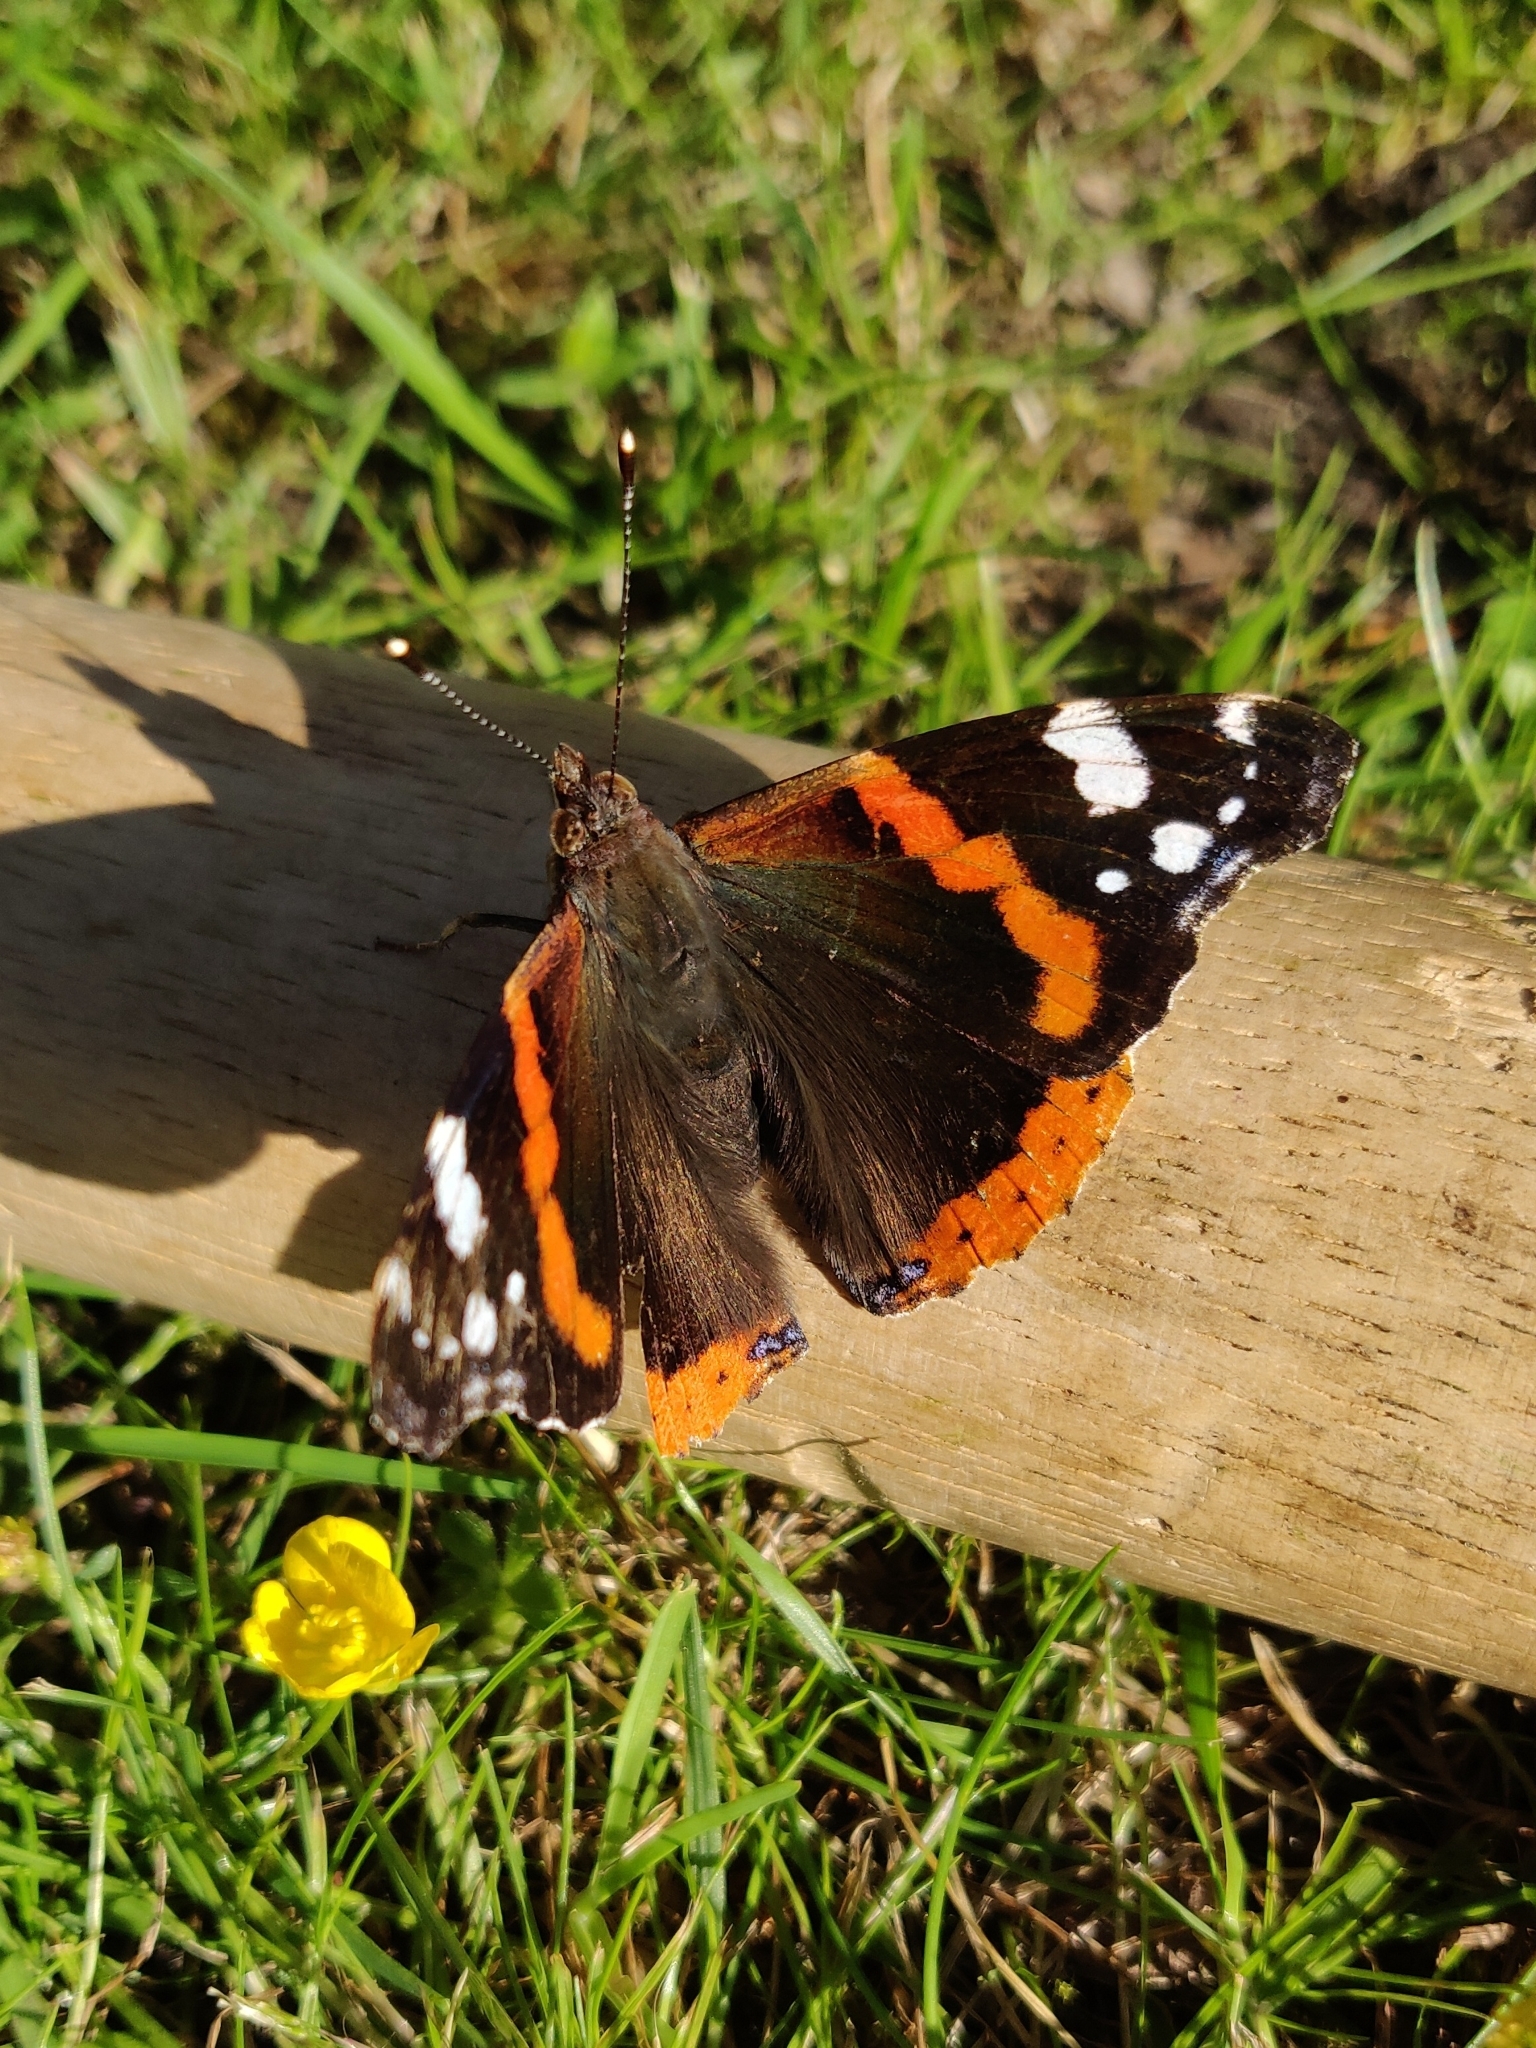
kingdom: Animalia
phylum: Arthropoda
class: Insecta
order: Lepidoptera
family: Nymphalidae
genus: Vanessa
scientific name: Vanessa atalanta
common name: Red admiral
